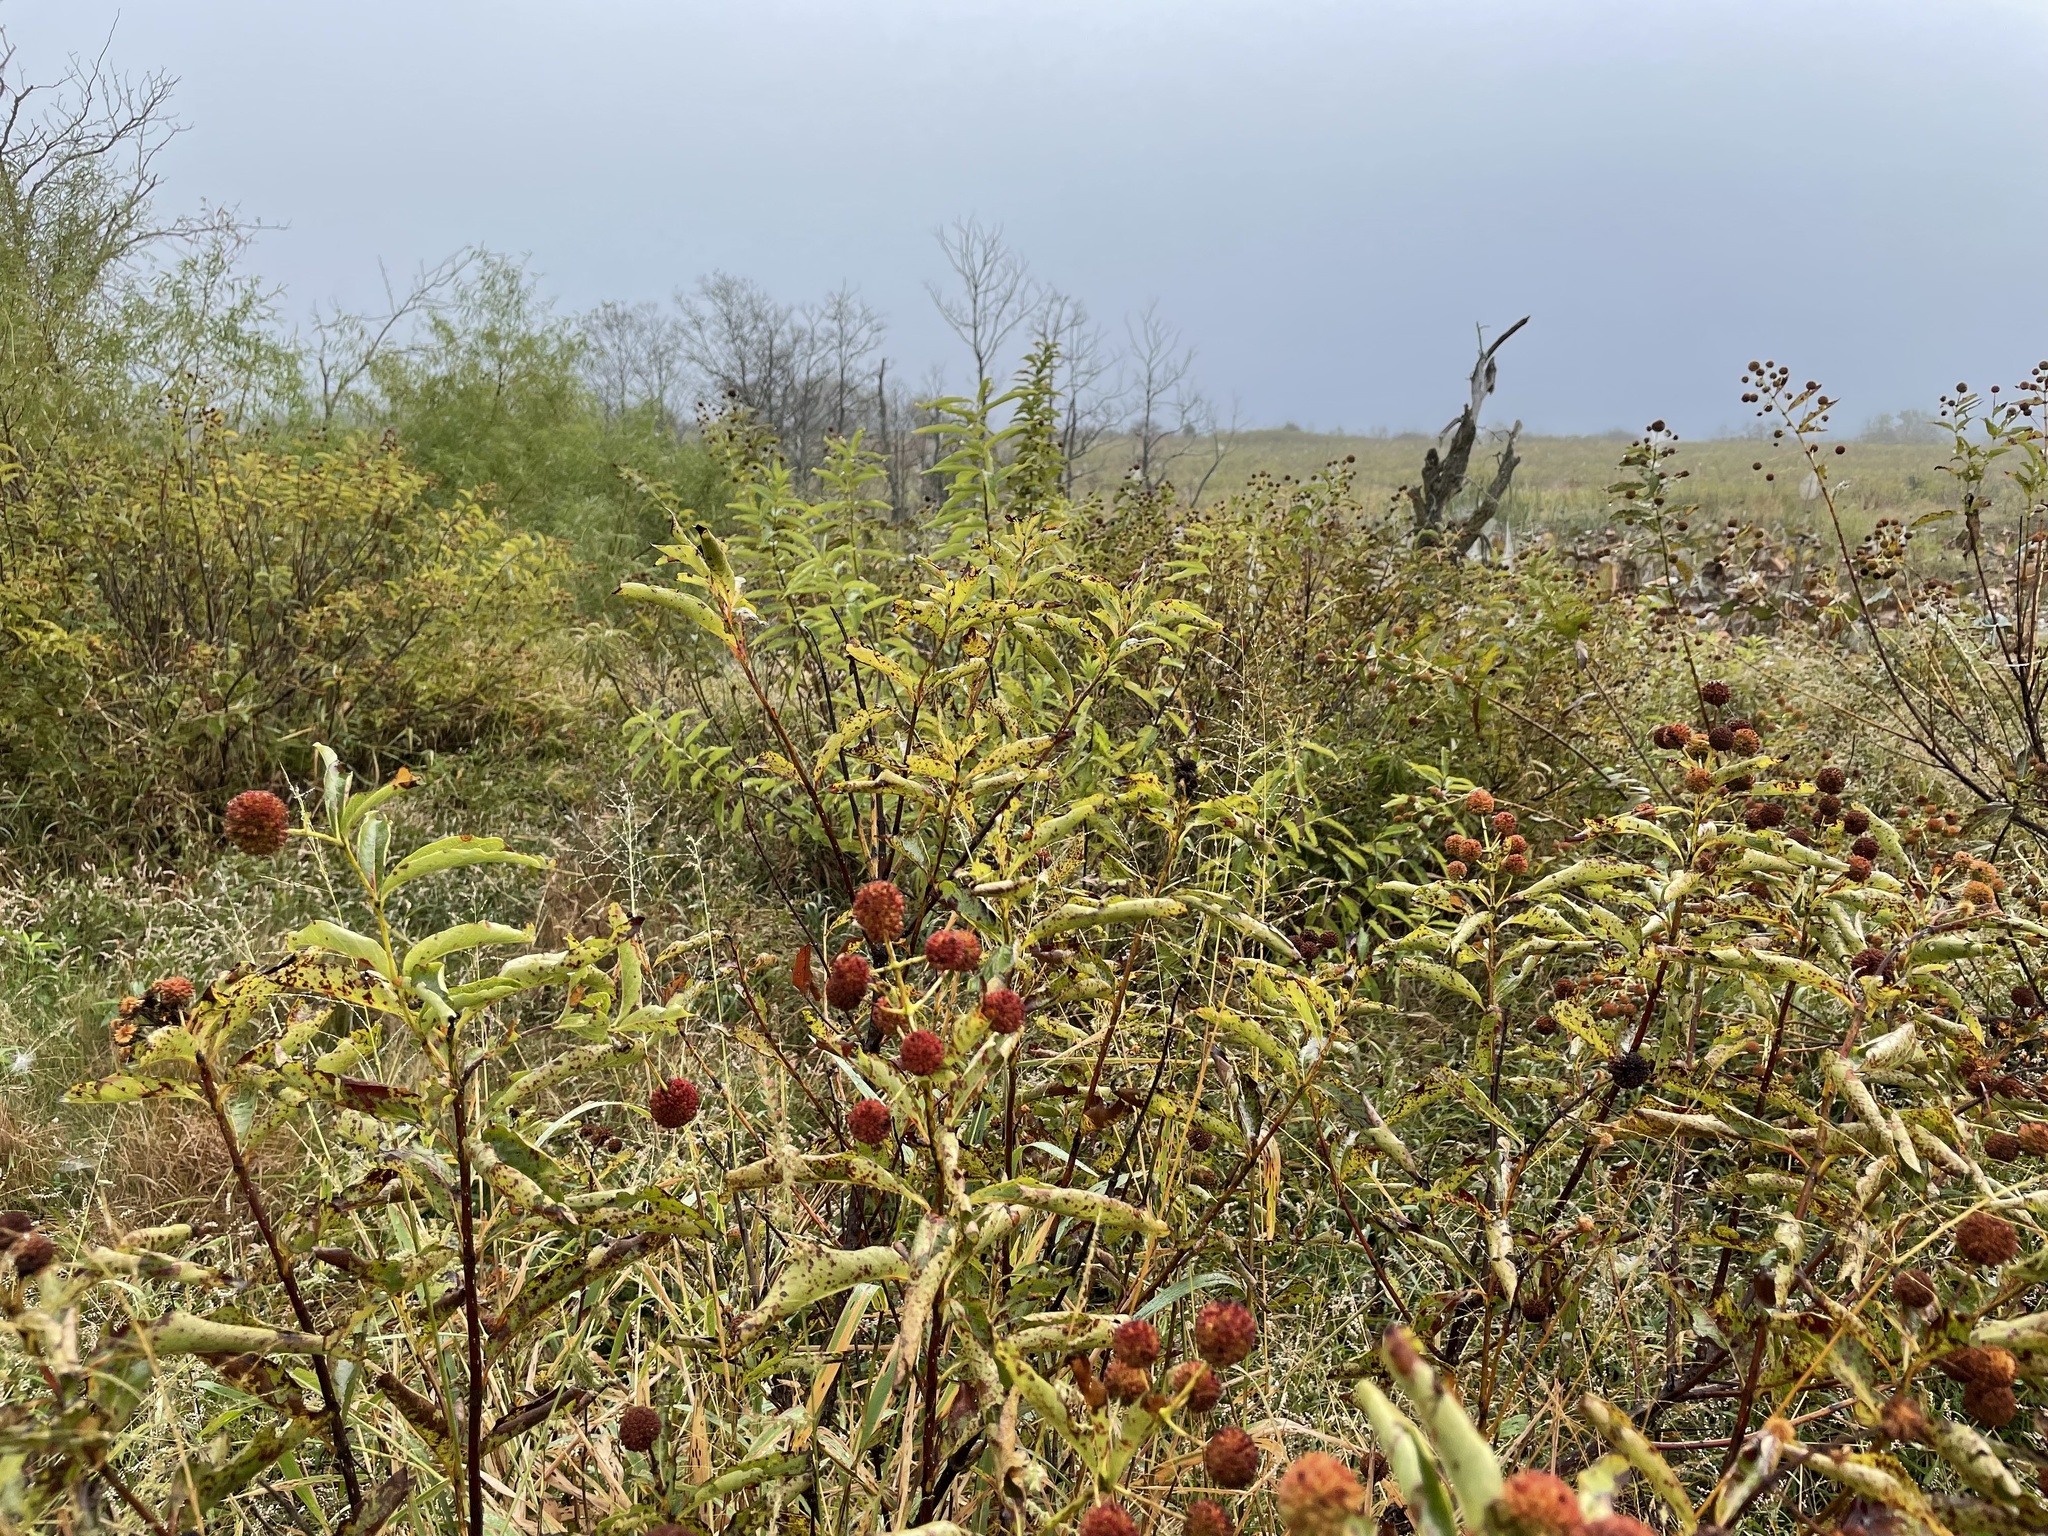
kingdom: Plantae
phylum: Tracheophyta
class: Magnoliopsida
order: Gentianales
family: Rubiaceae
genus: Cephalanthus
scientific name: Cephalanthus occidentalis
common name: Button-willow
